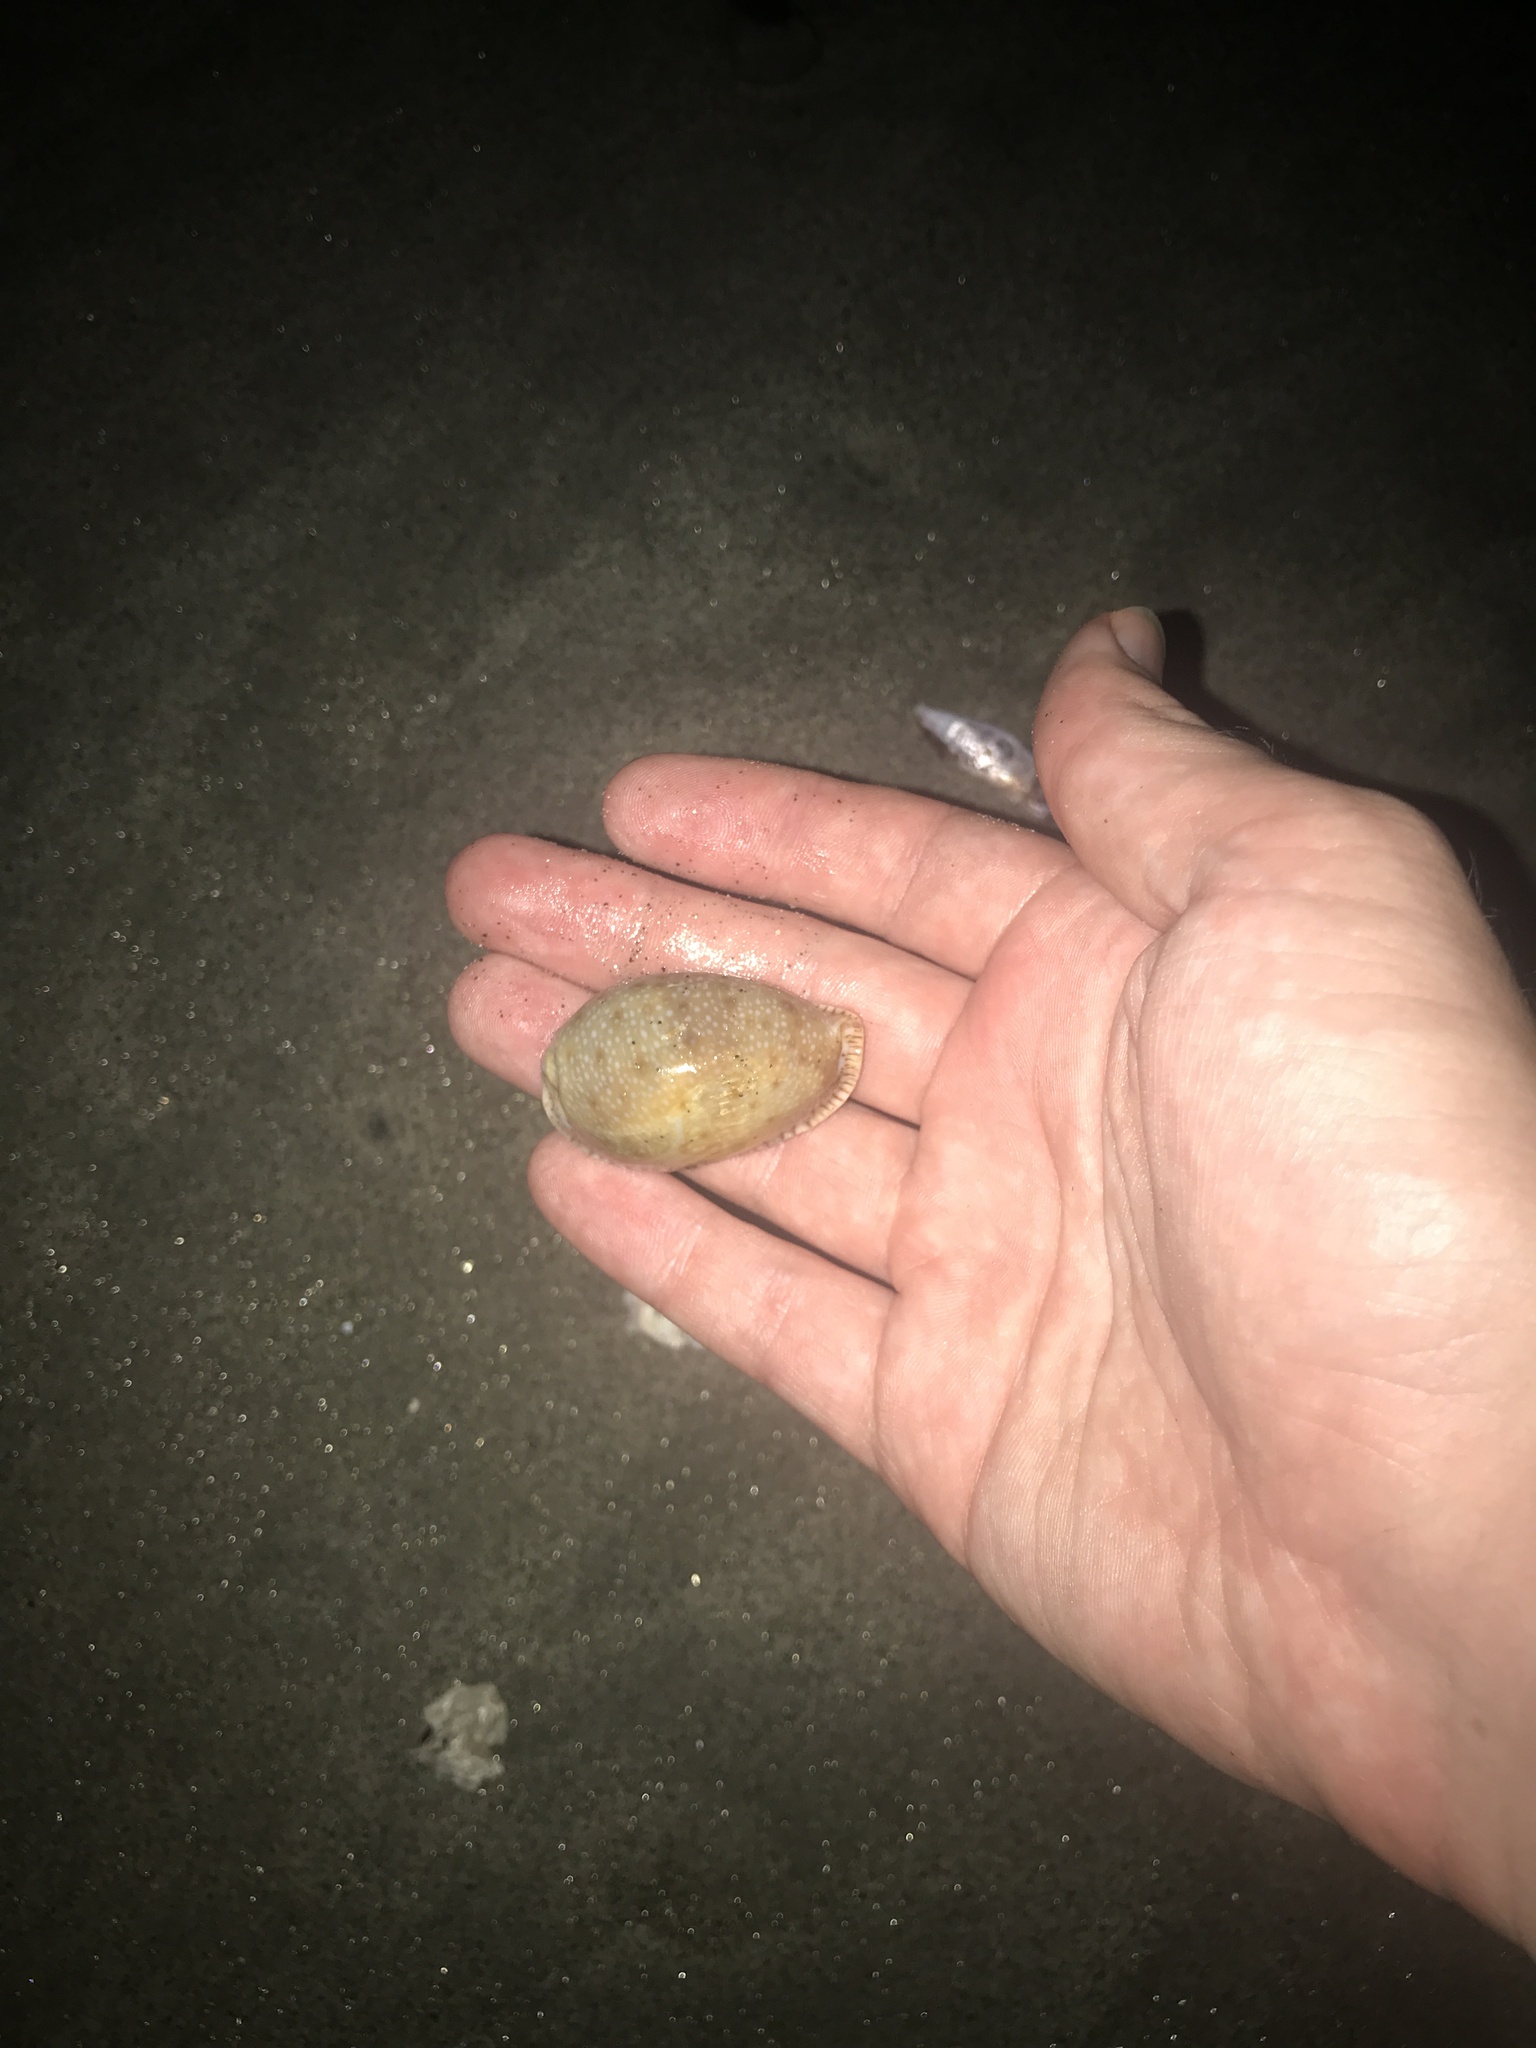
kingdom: Animalia
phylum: Mollusca
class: Gastropoda
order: Littorinimorpha
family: Cypraeidae
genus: Naria
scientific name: Naria erosa
